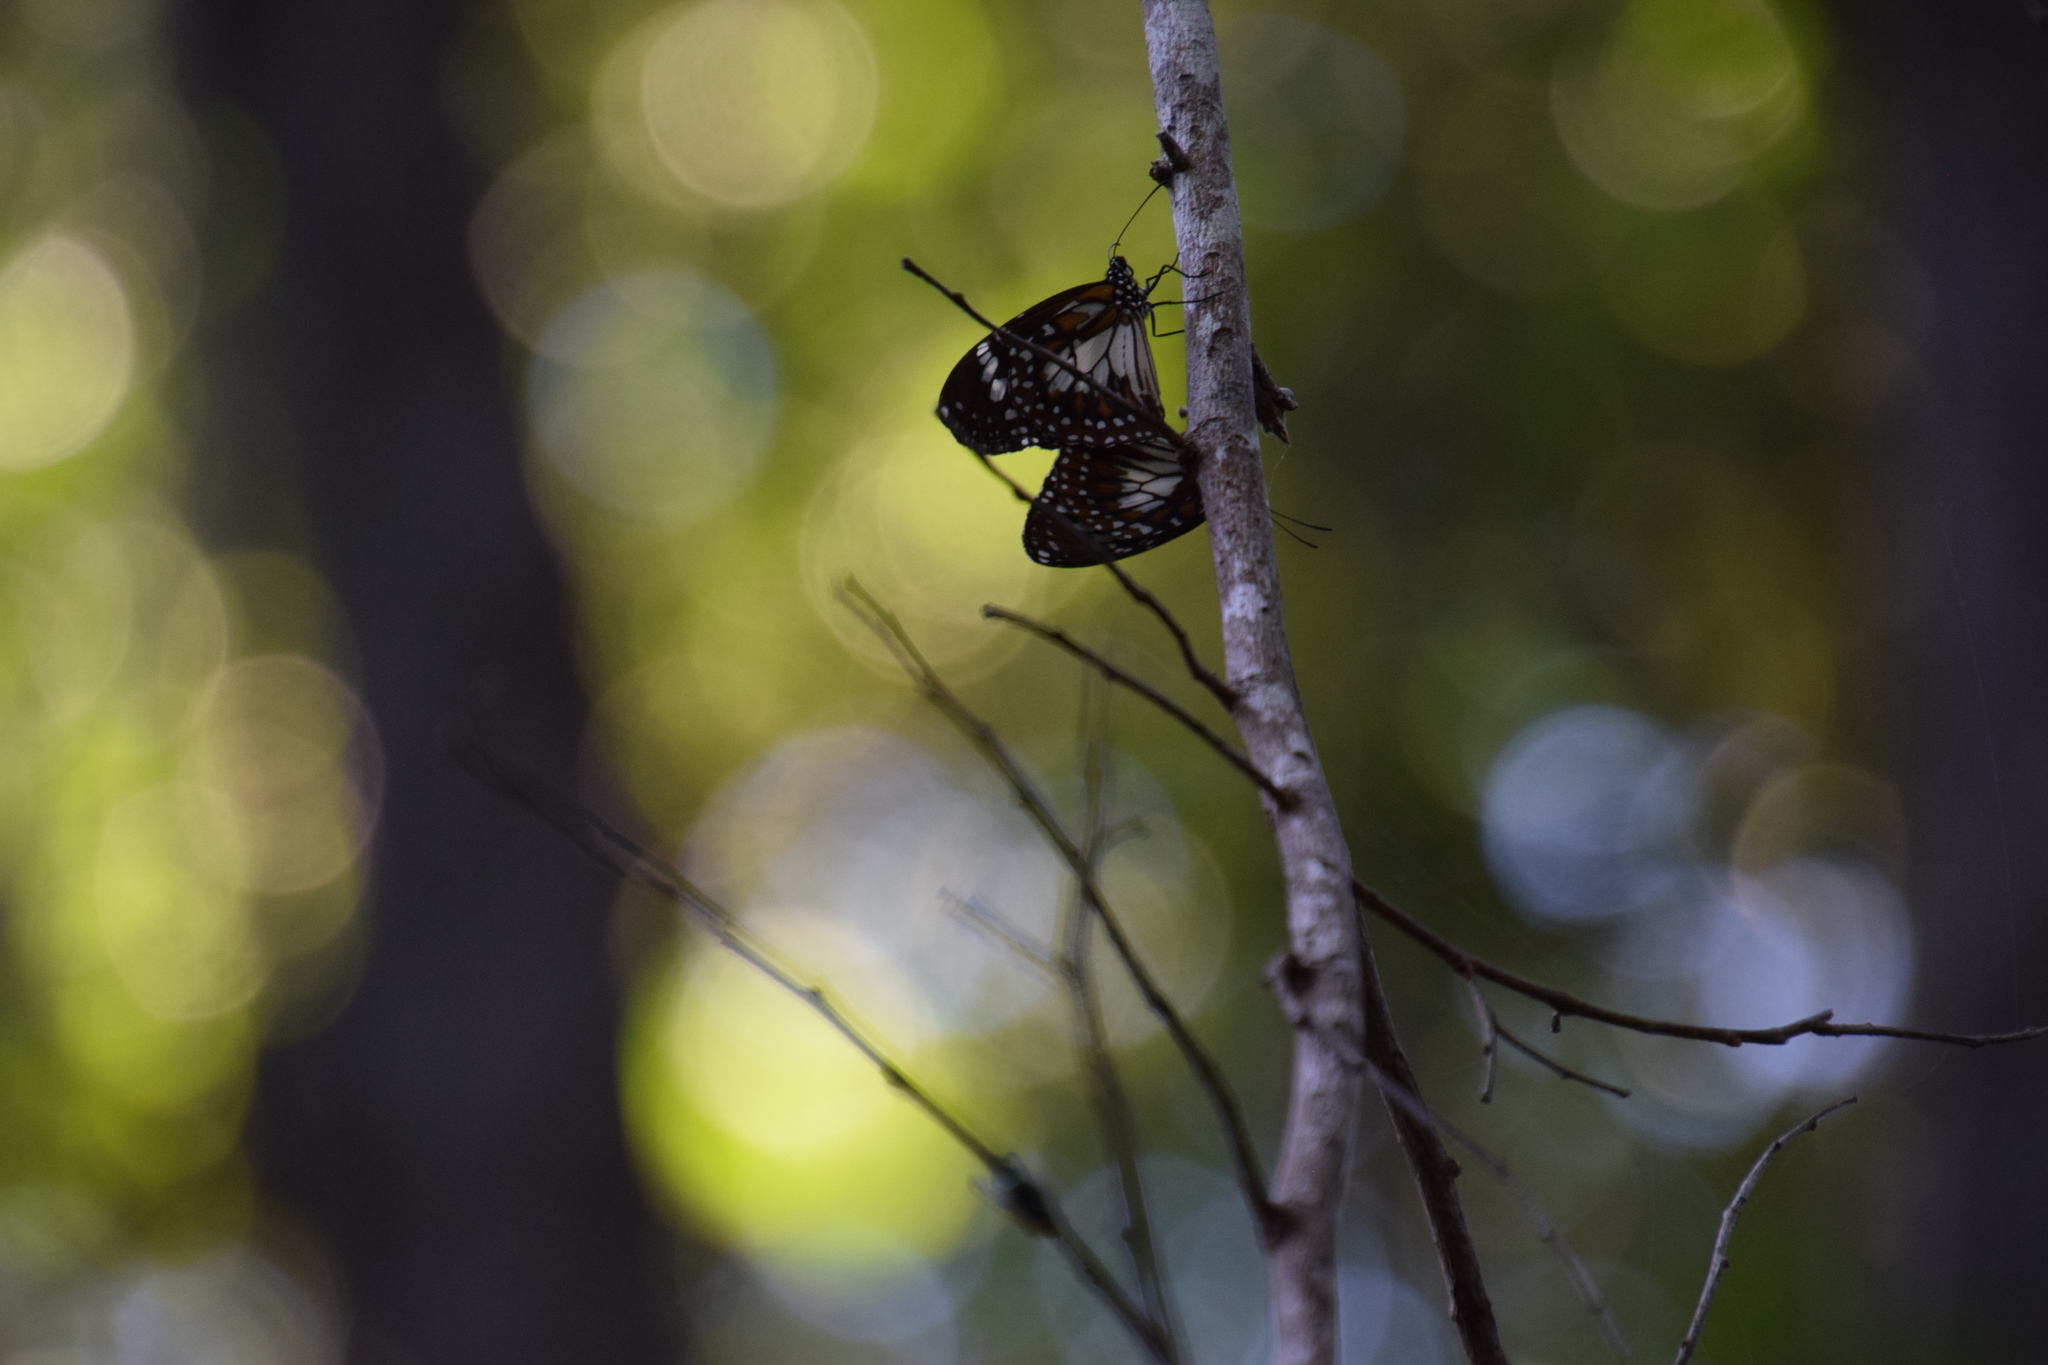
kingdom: Animalia
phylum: Arthropoda
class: Insecta
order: Lepidoptera
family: Nymphalidae
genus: Danaus
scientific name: Danaus affinis
